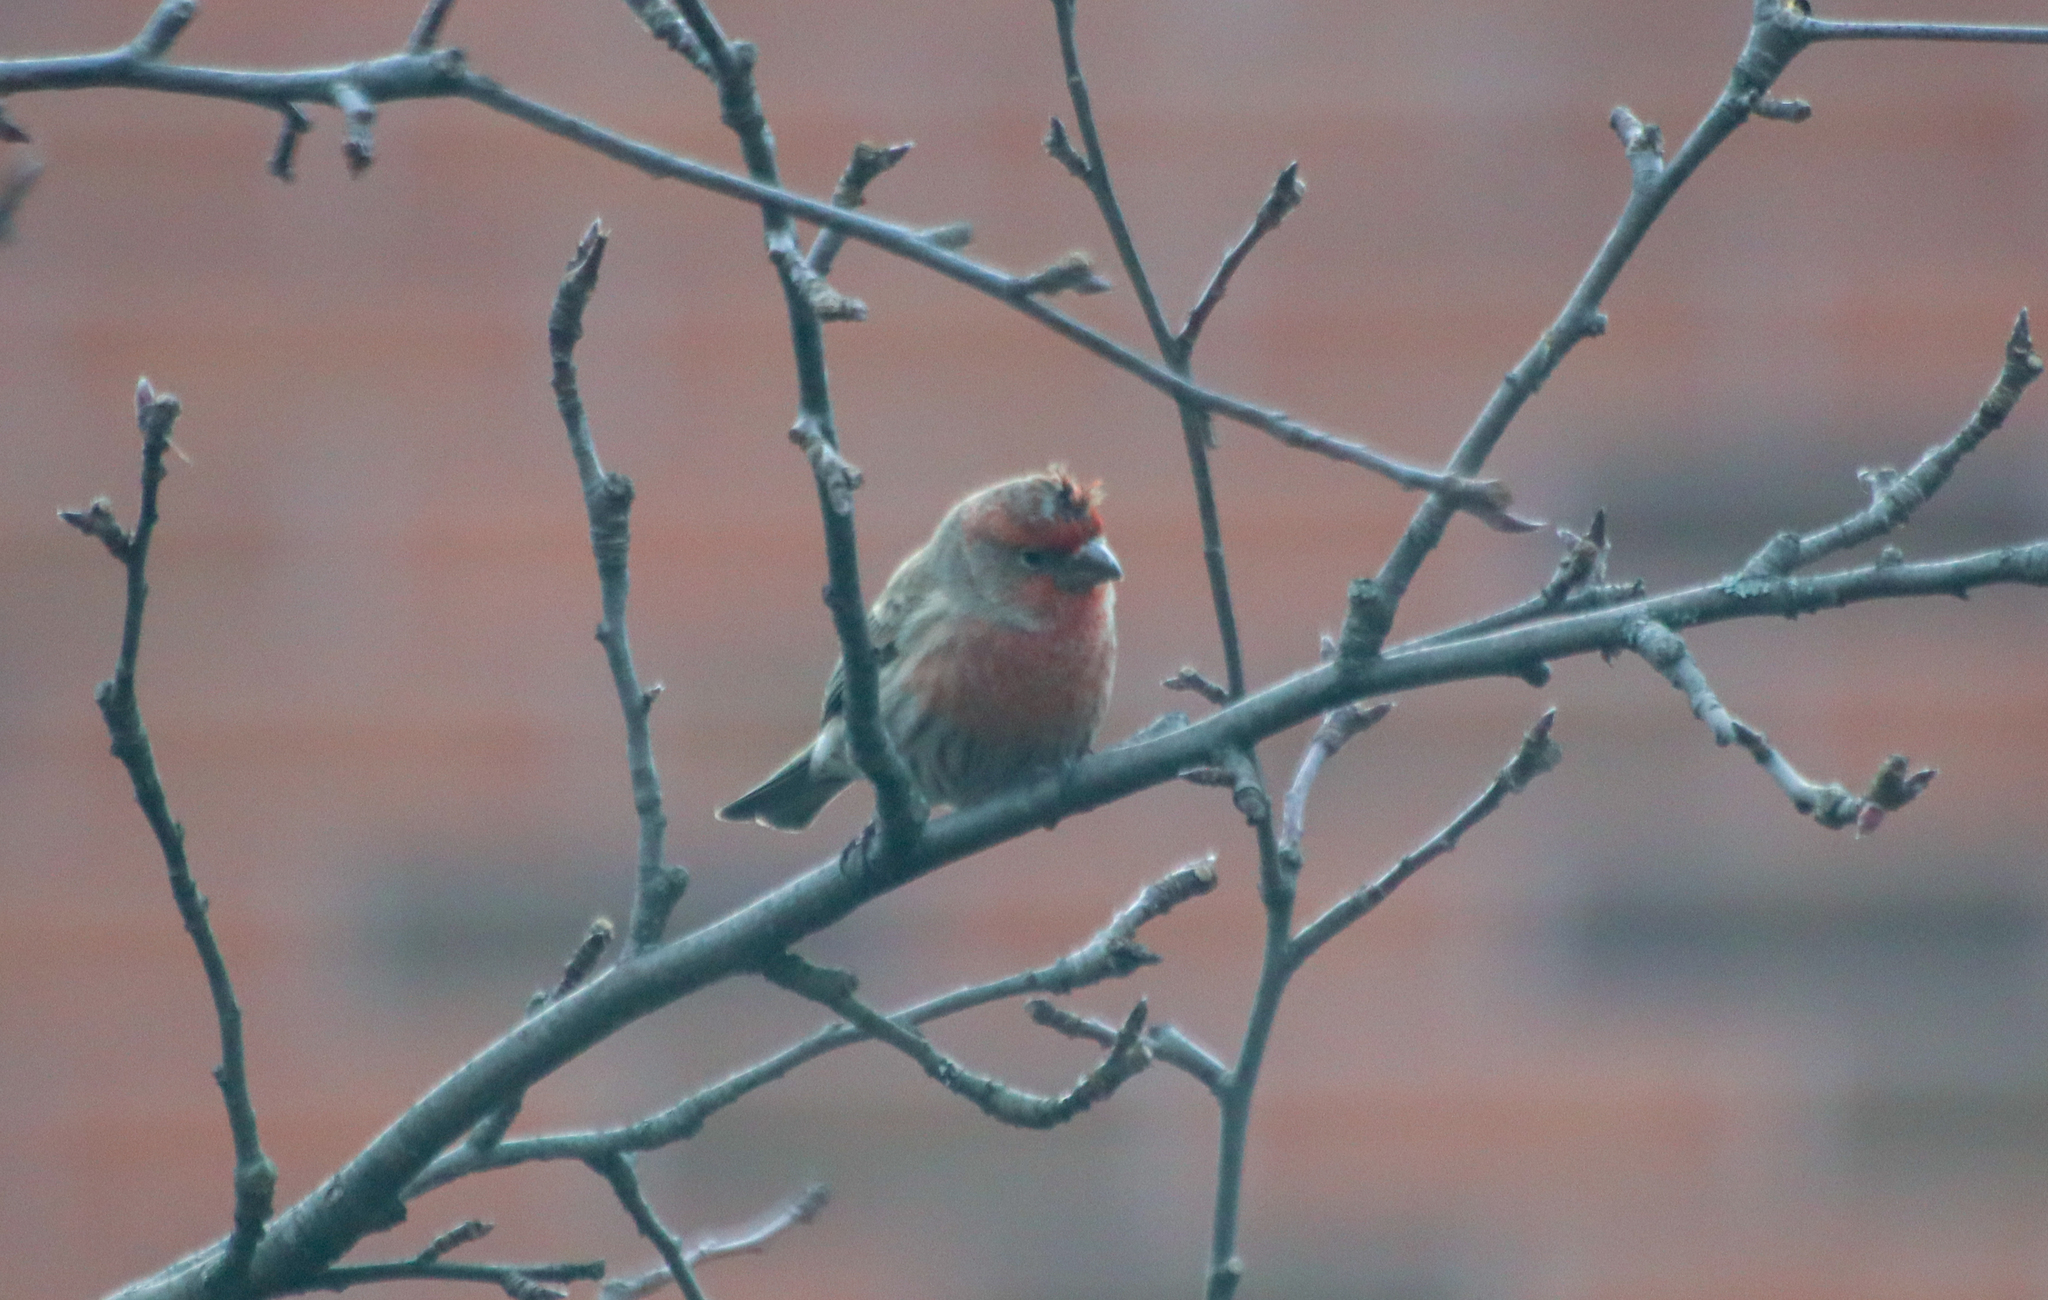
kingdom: Animalia
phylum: Chordata
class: Aves
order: Passeriformes
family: Fringillidae
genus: Haemorhous
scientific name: Haemorhous mexicanus
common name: House finch
